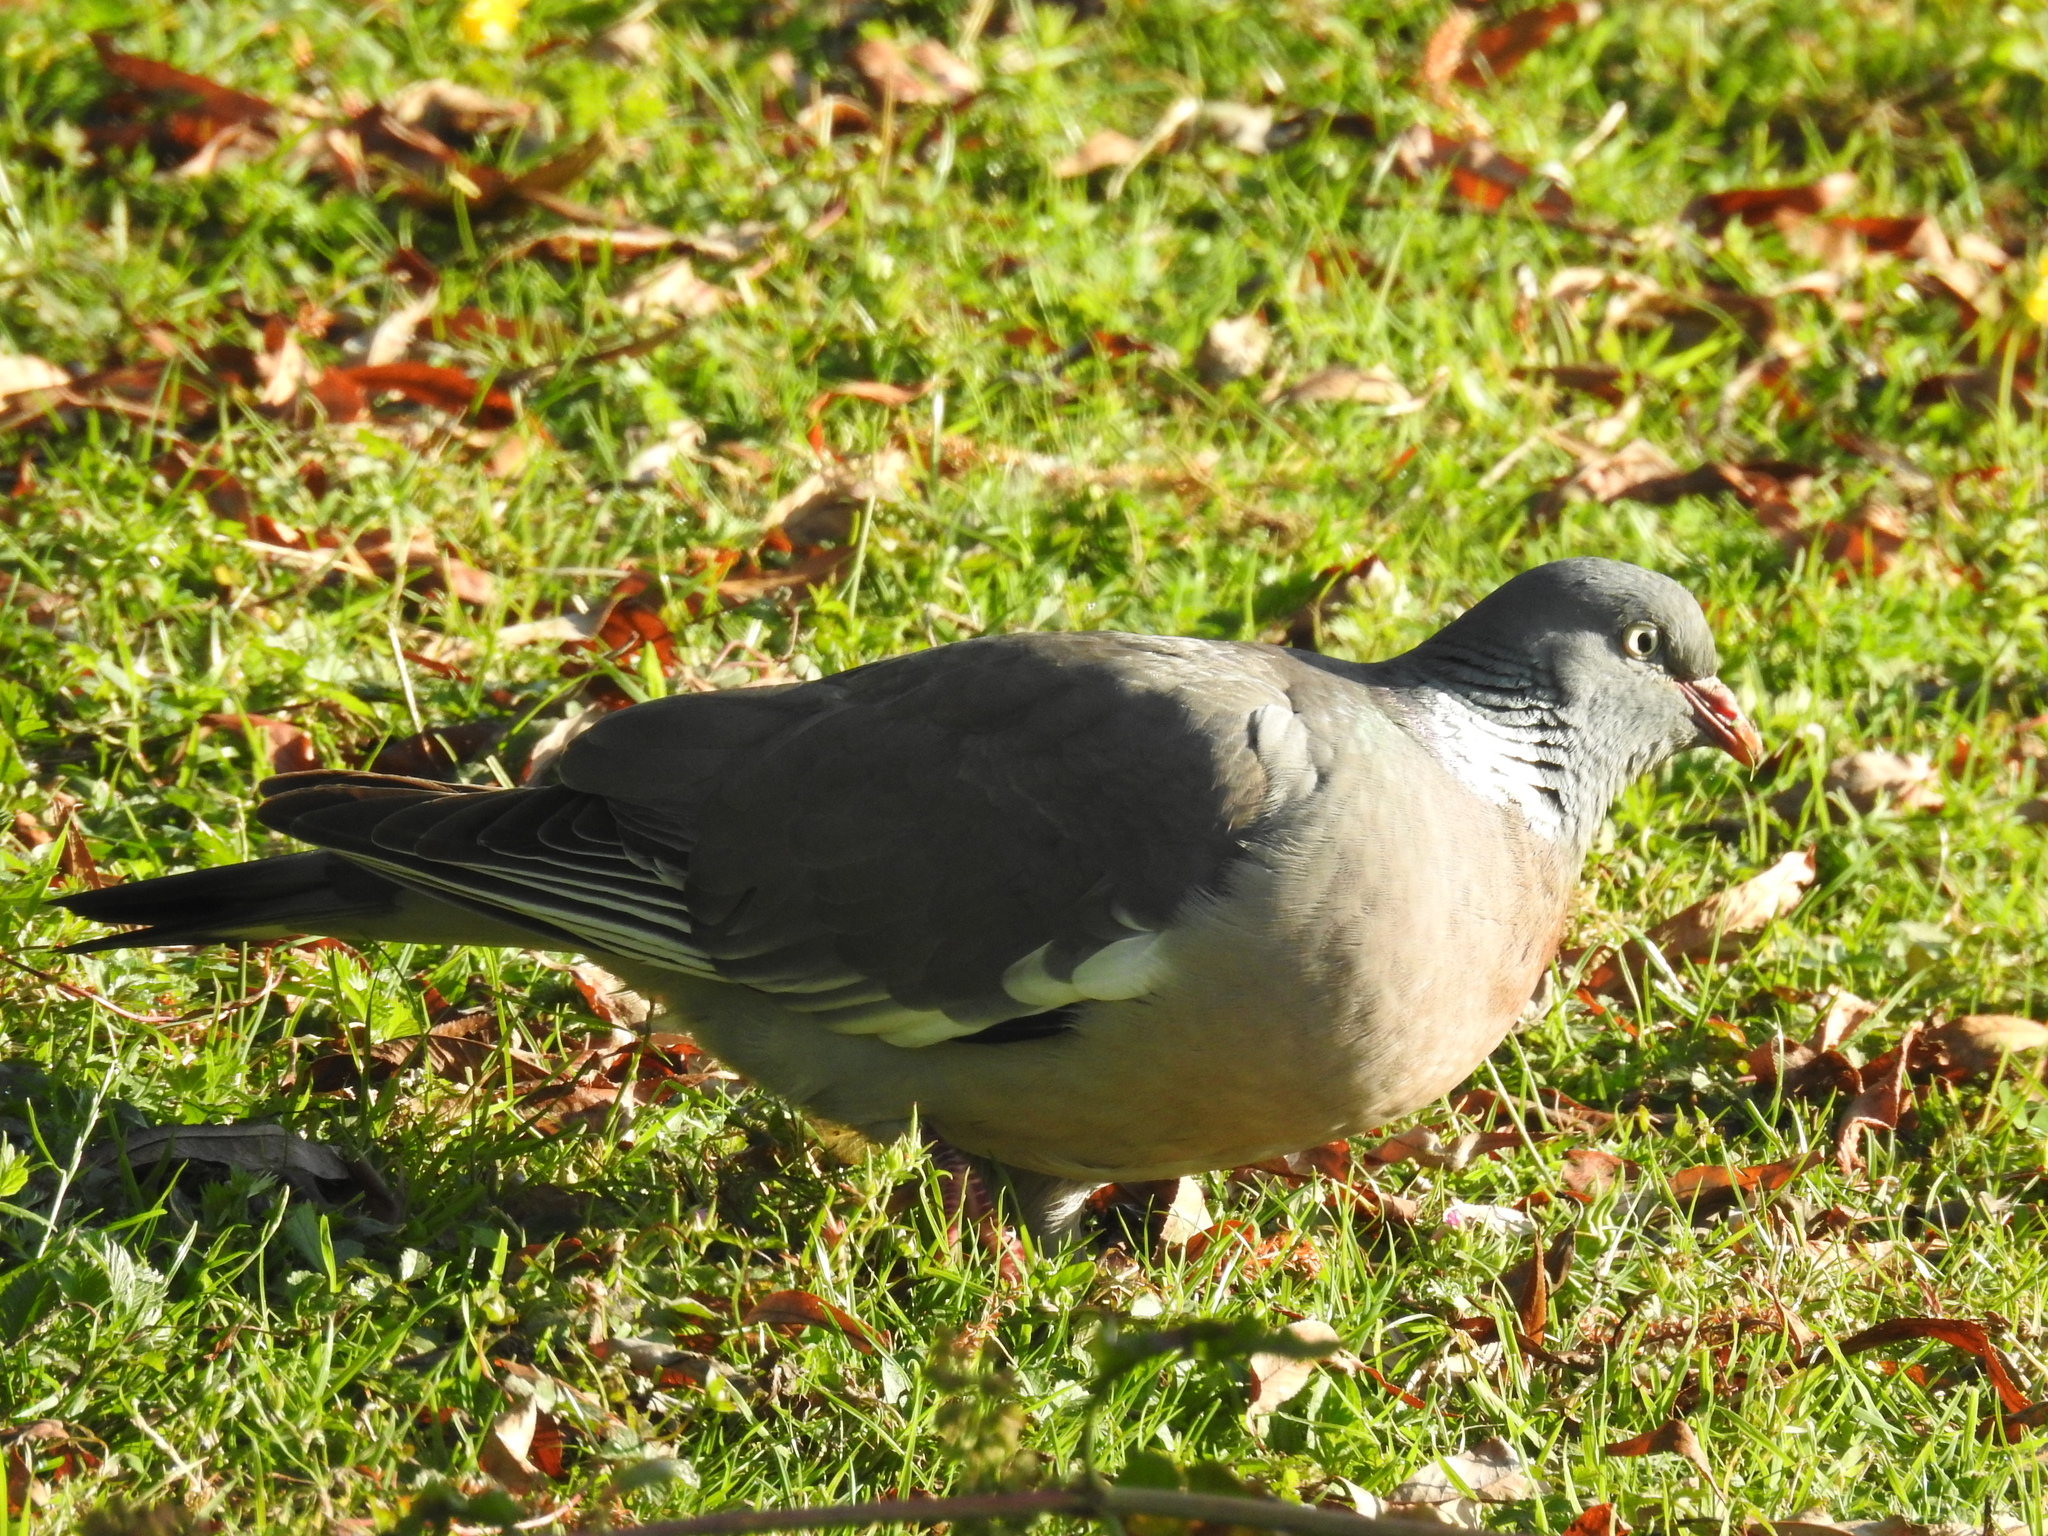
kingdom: Animalia
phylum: Chordata
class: Aves
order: Columbiformes
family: Columbidae
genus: Columba
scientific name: Columba palumbus
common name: Common wood pigeon
